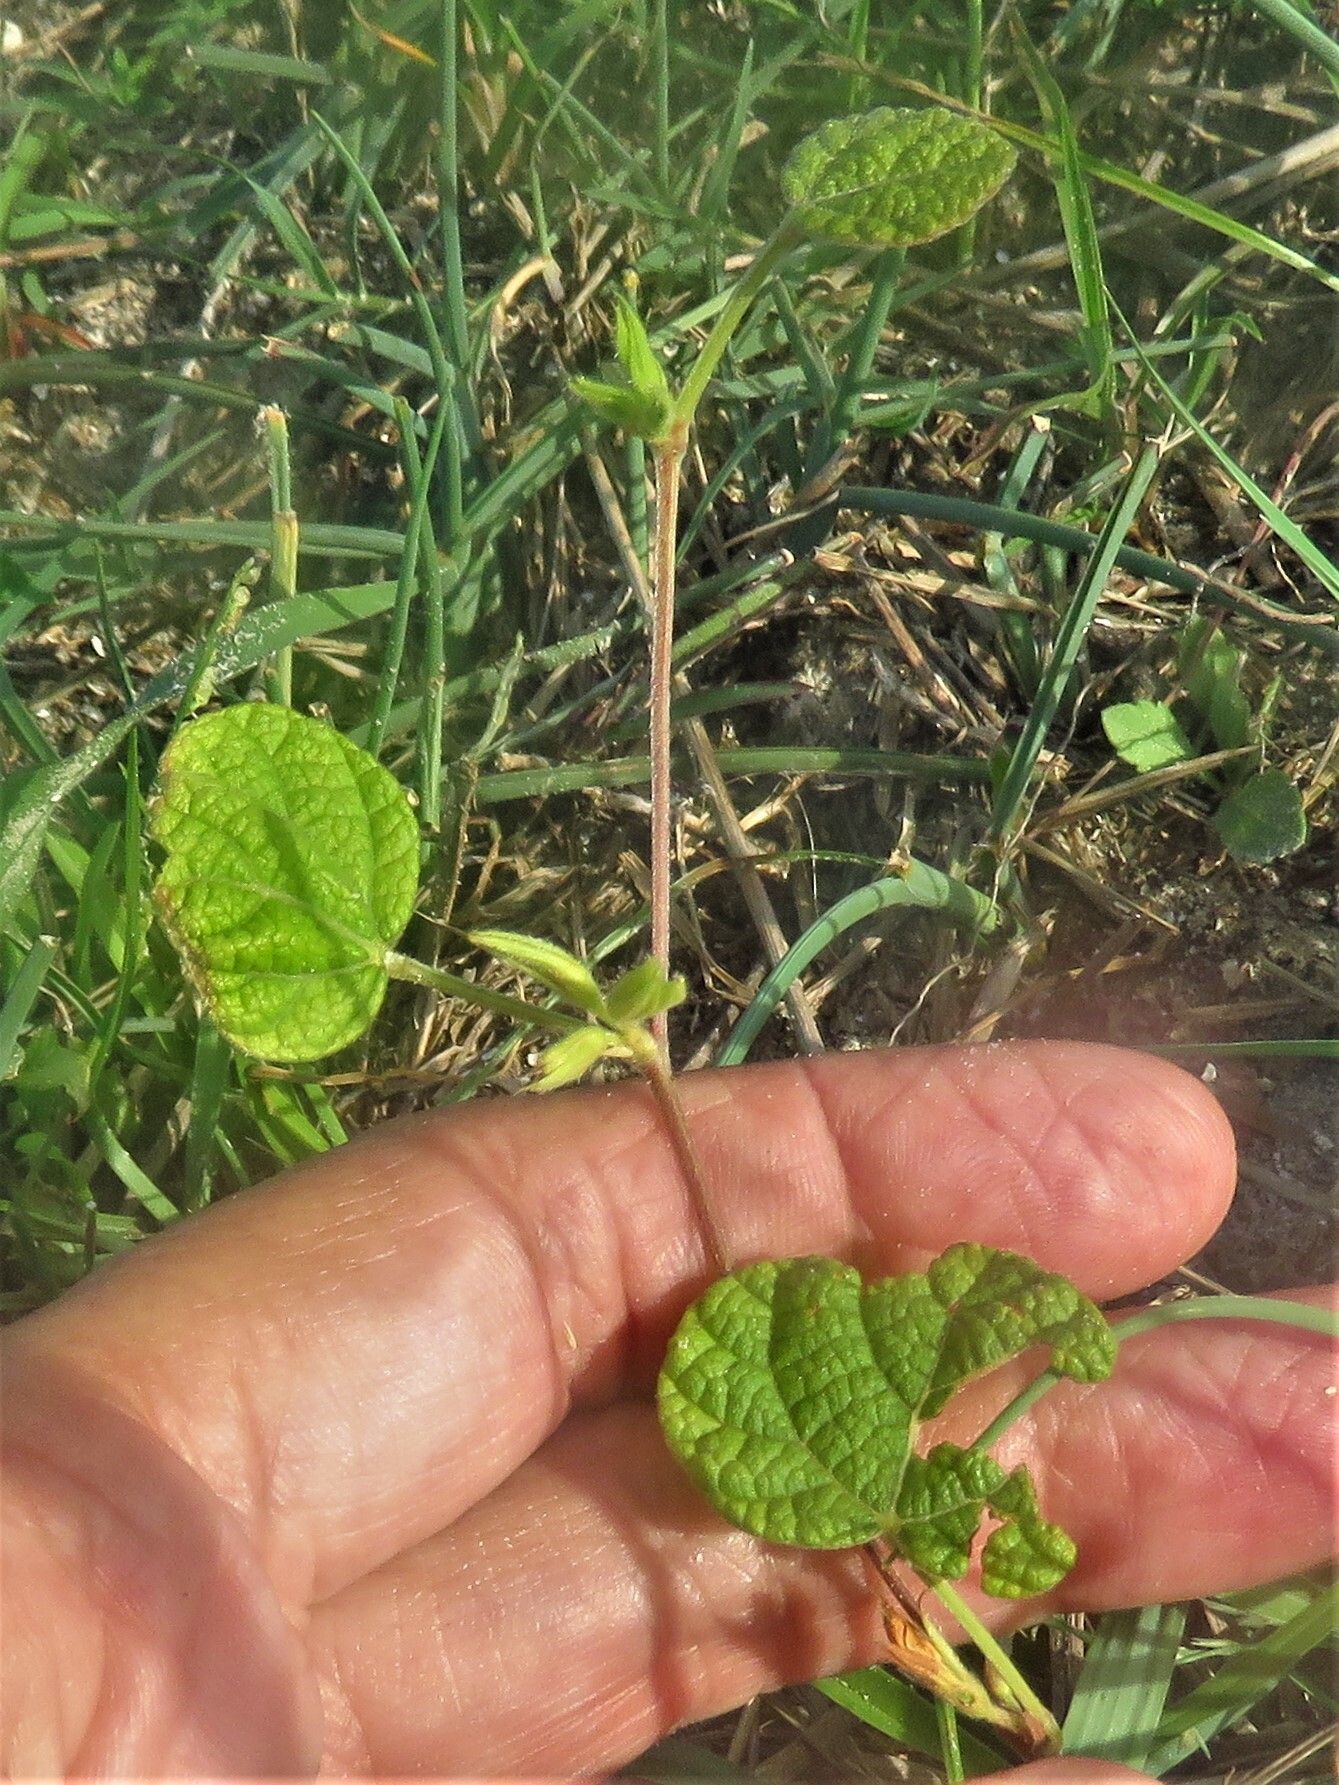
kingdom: Plantae
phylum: Tracheophyta
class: Magnoliopsida
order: Fabales
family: Fabaceae
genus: Rhynchosia
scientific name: Rhynchosia americana
